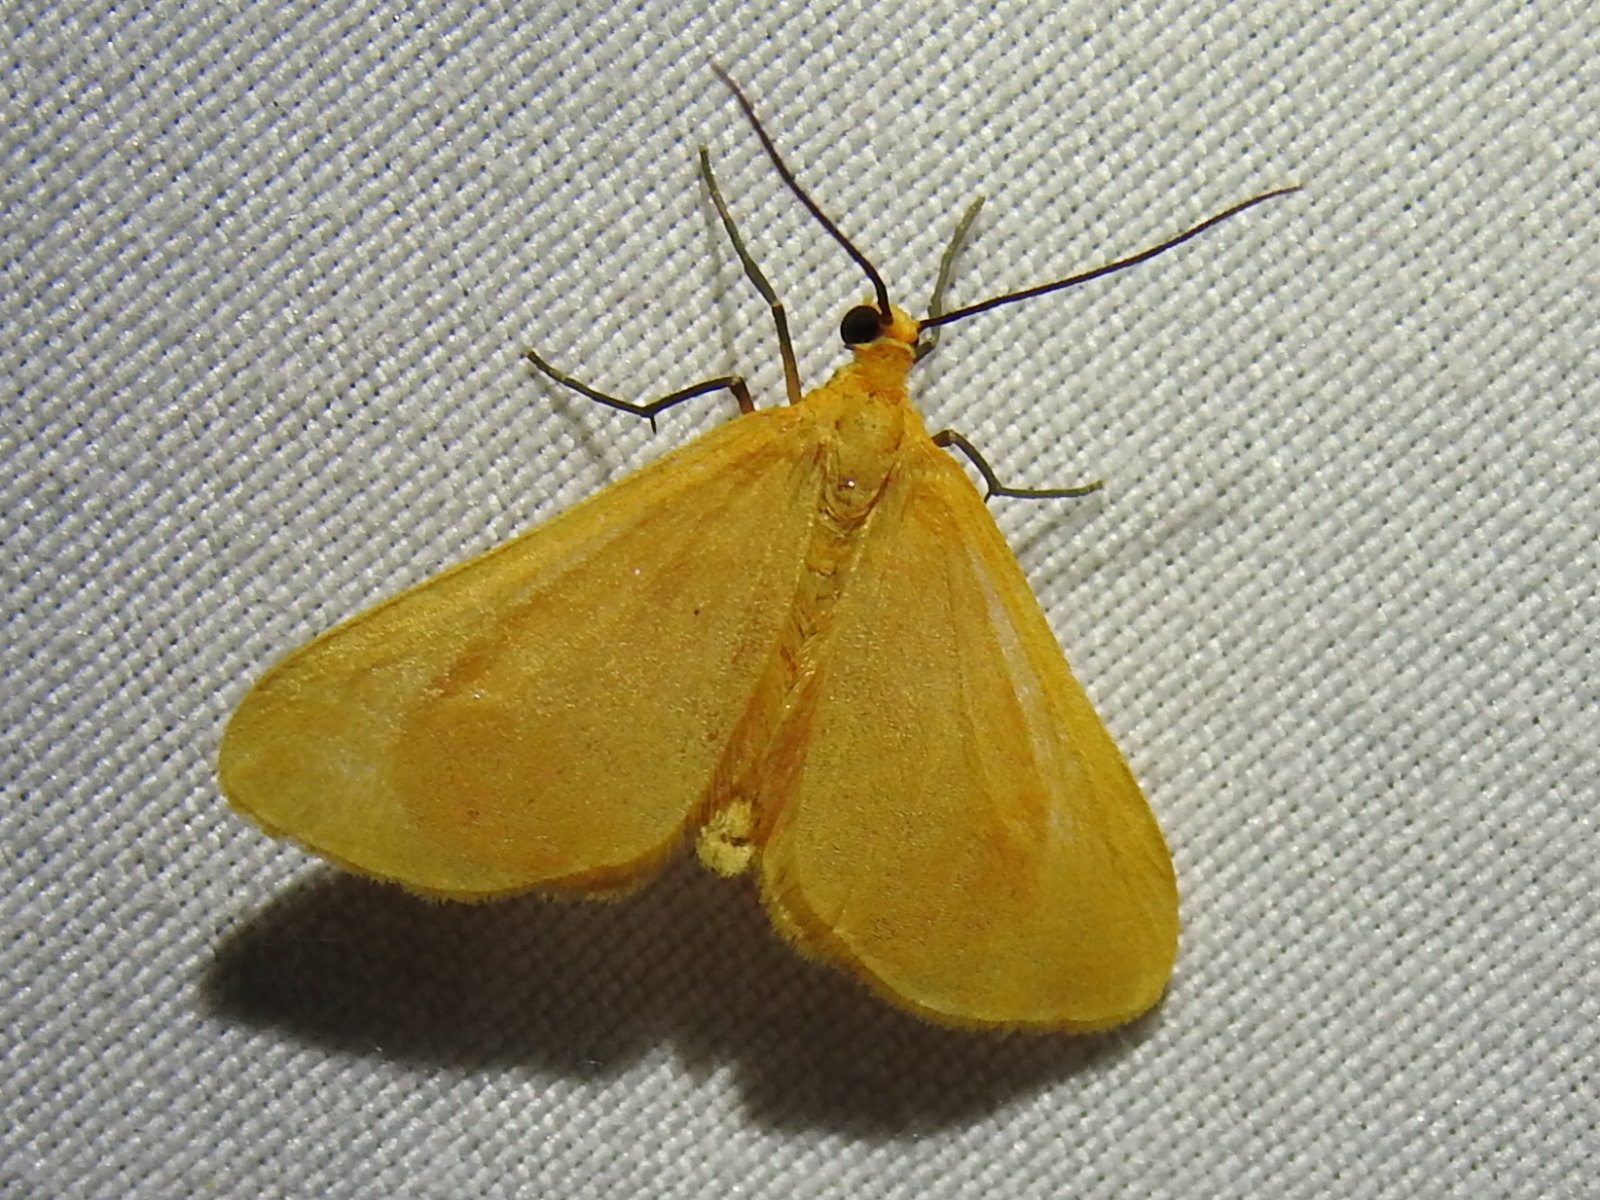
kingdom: Animalia
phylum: Arthropoda
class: Insecta
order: Lepidoptera
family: Geometridae
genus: Eubaphe
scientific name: Eubaphe unicolor
